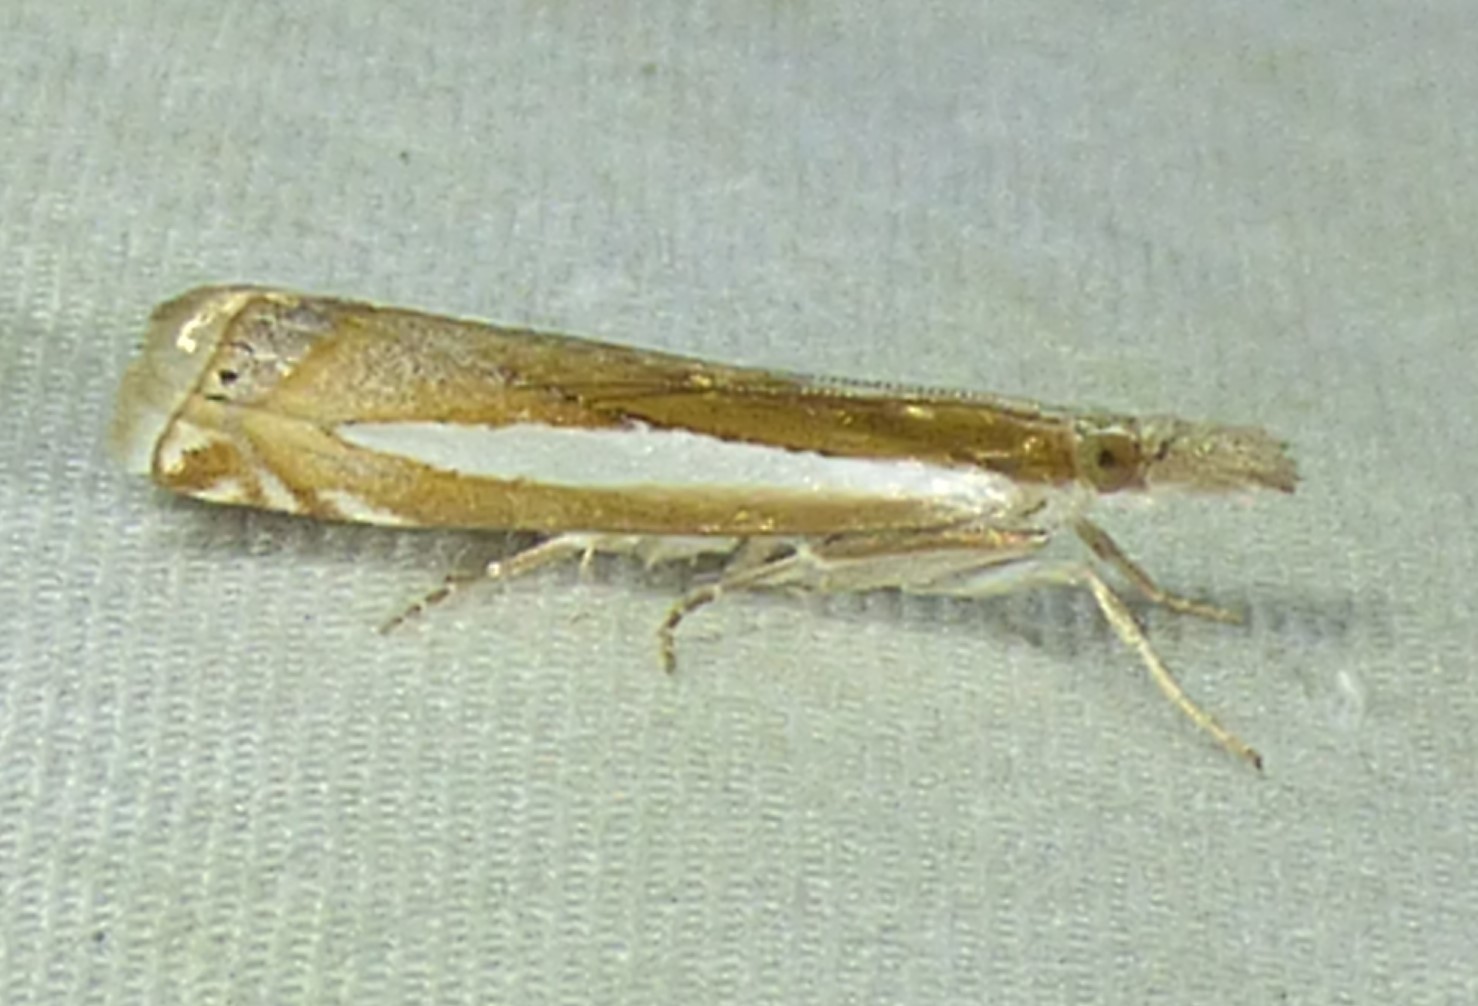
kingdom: Animalia
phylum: Arthropoda
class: Insecta
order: Lepidoptera
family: Crambidae
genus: Crambus
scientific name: Crambus praefectellus
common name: Common grass-veneer
